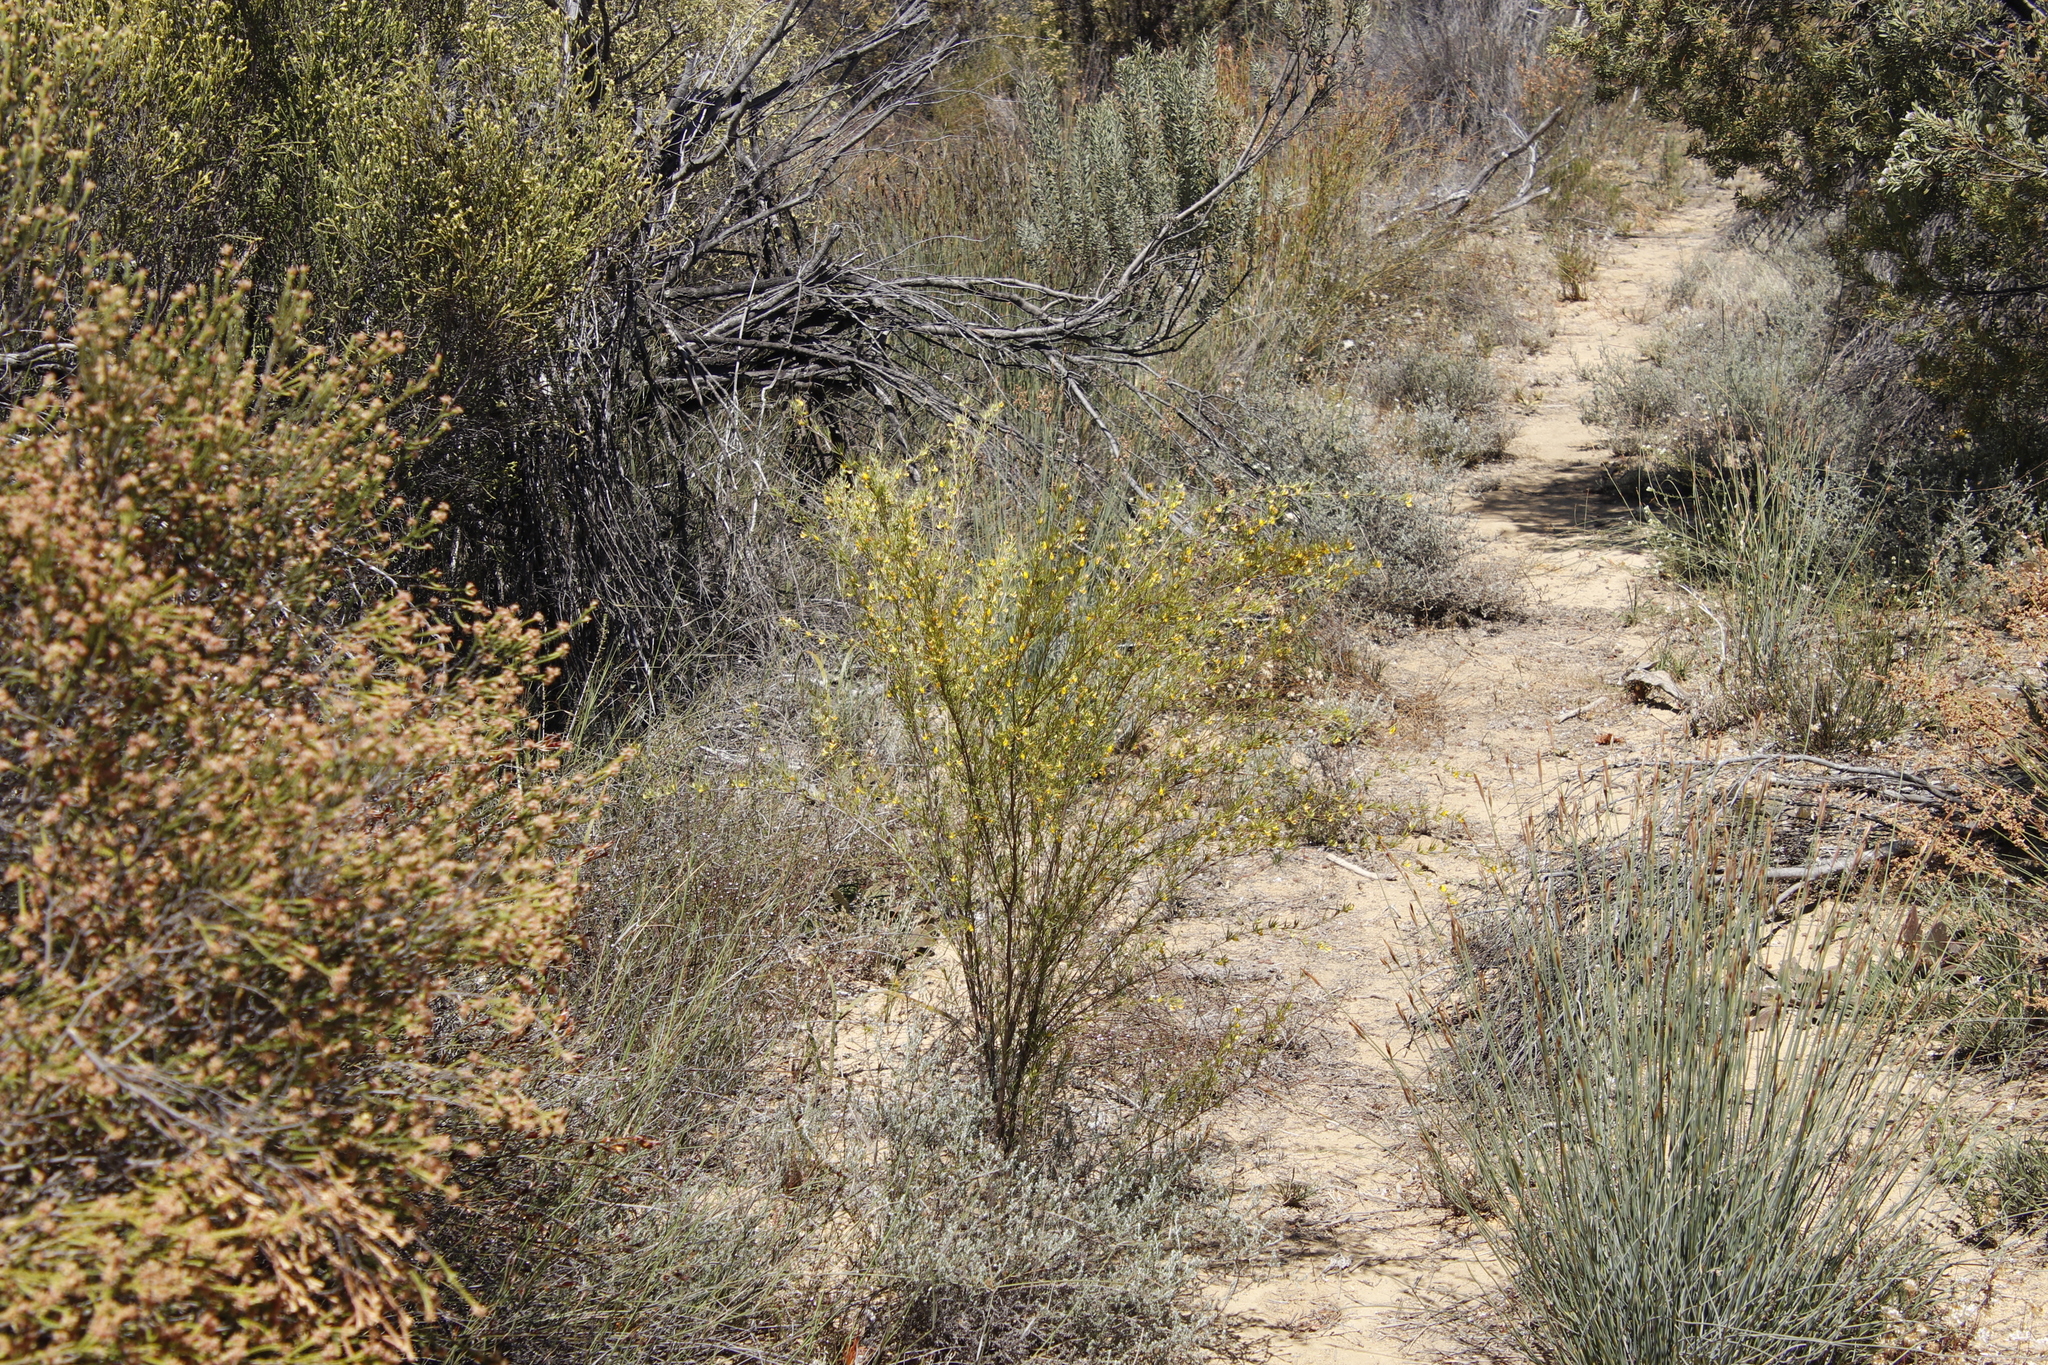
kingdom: Plantae
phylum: Tracheophyta
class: Magnoliopsida
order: Fabales
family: Fabaceae
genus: Aspalathus
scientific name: Aspalathus linearis
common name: Rooibos-tea
